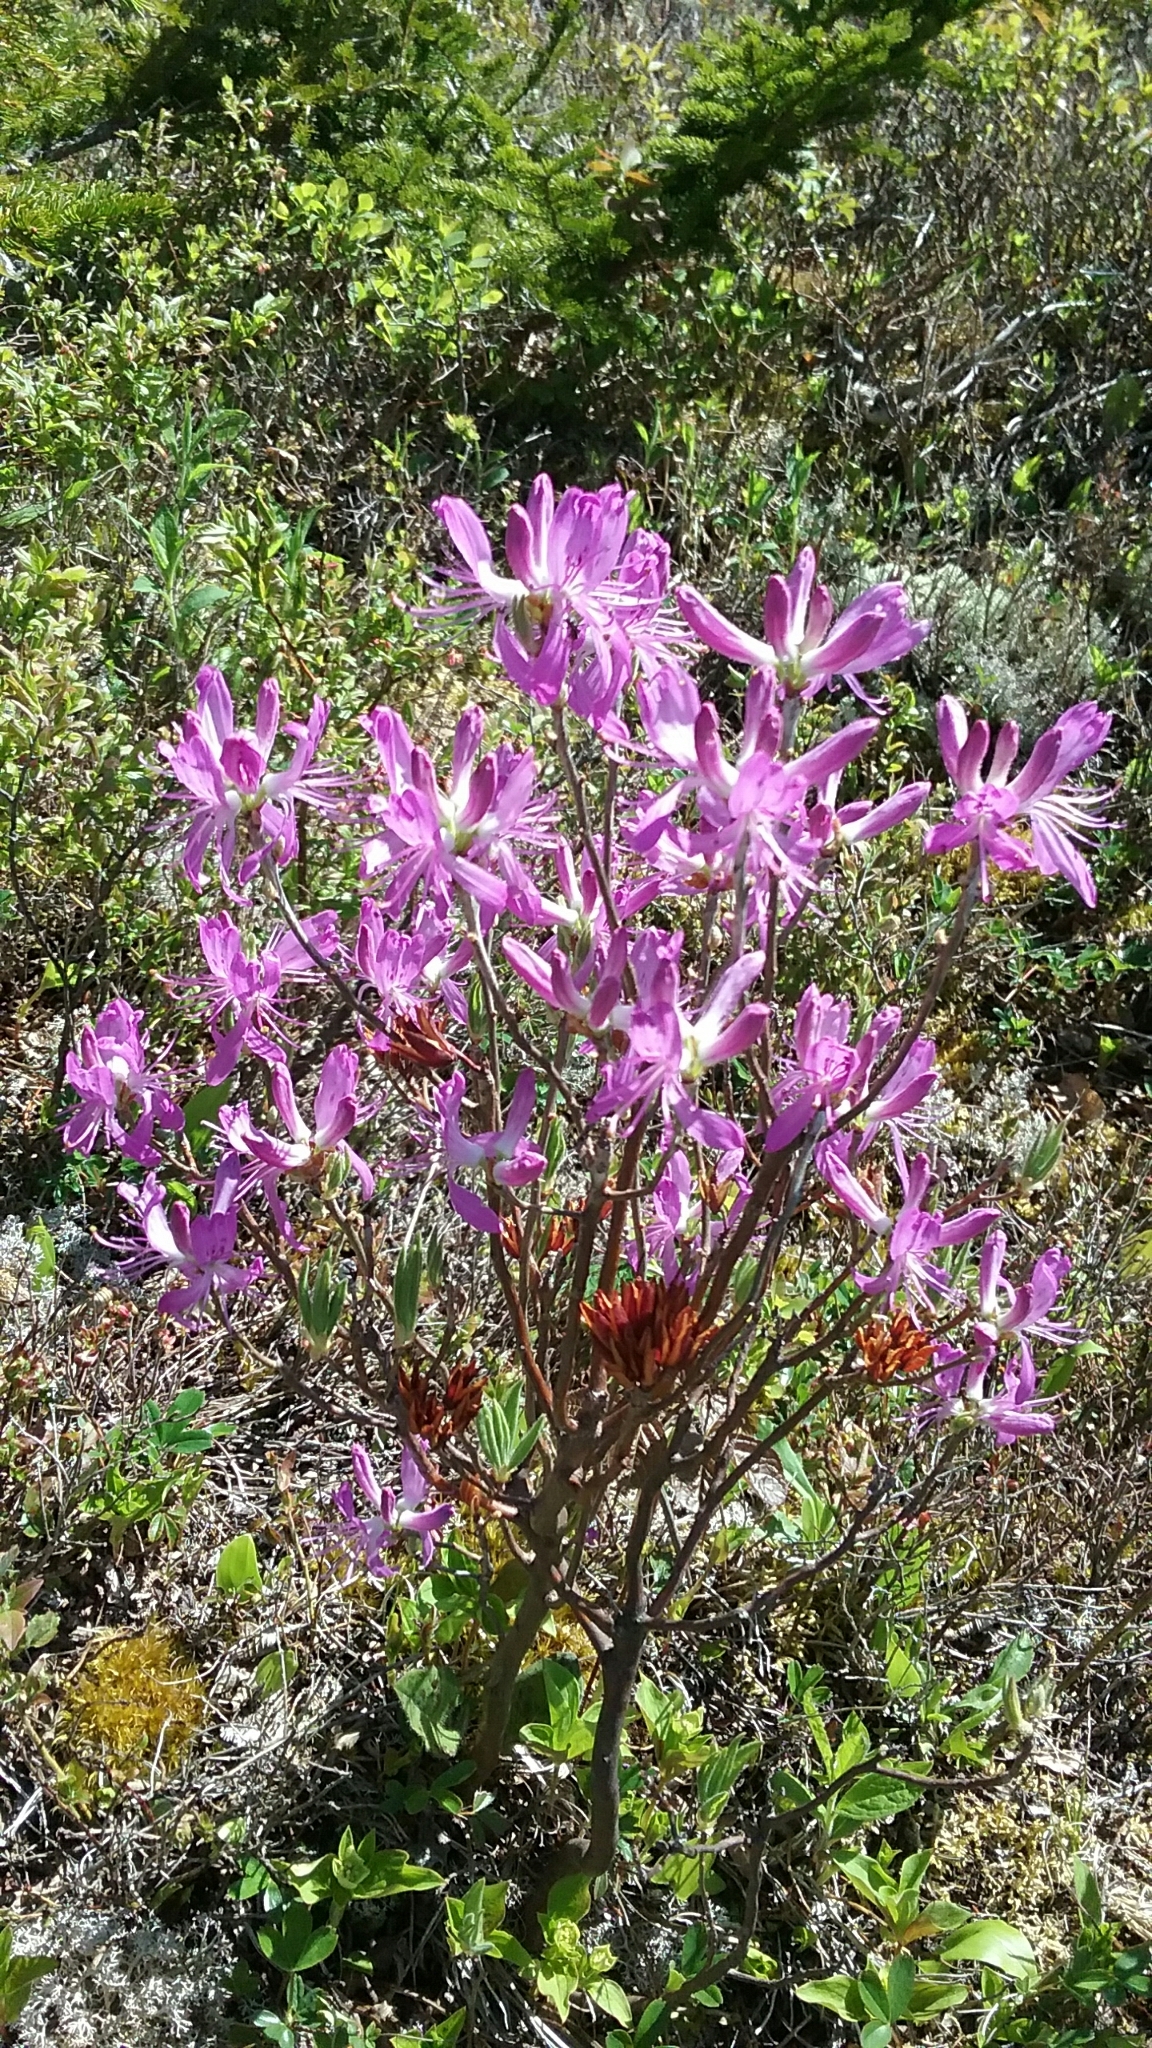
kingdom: Plantae
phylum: Tracheophyta
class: Magnoliopsida
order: Ericales
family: Ericaceae
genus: Rhododendron
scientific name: Rhododendron canadense
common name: Rhodora
